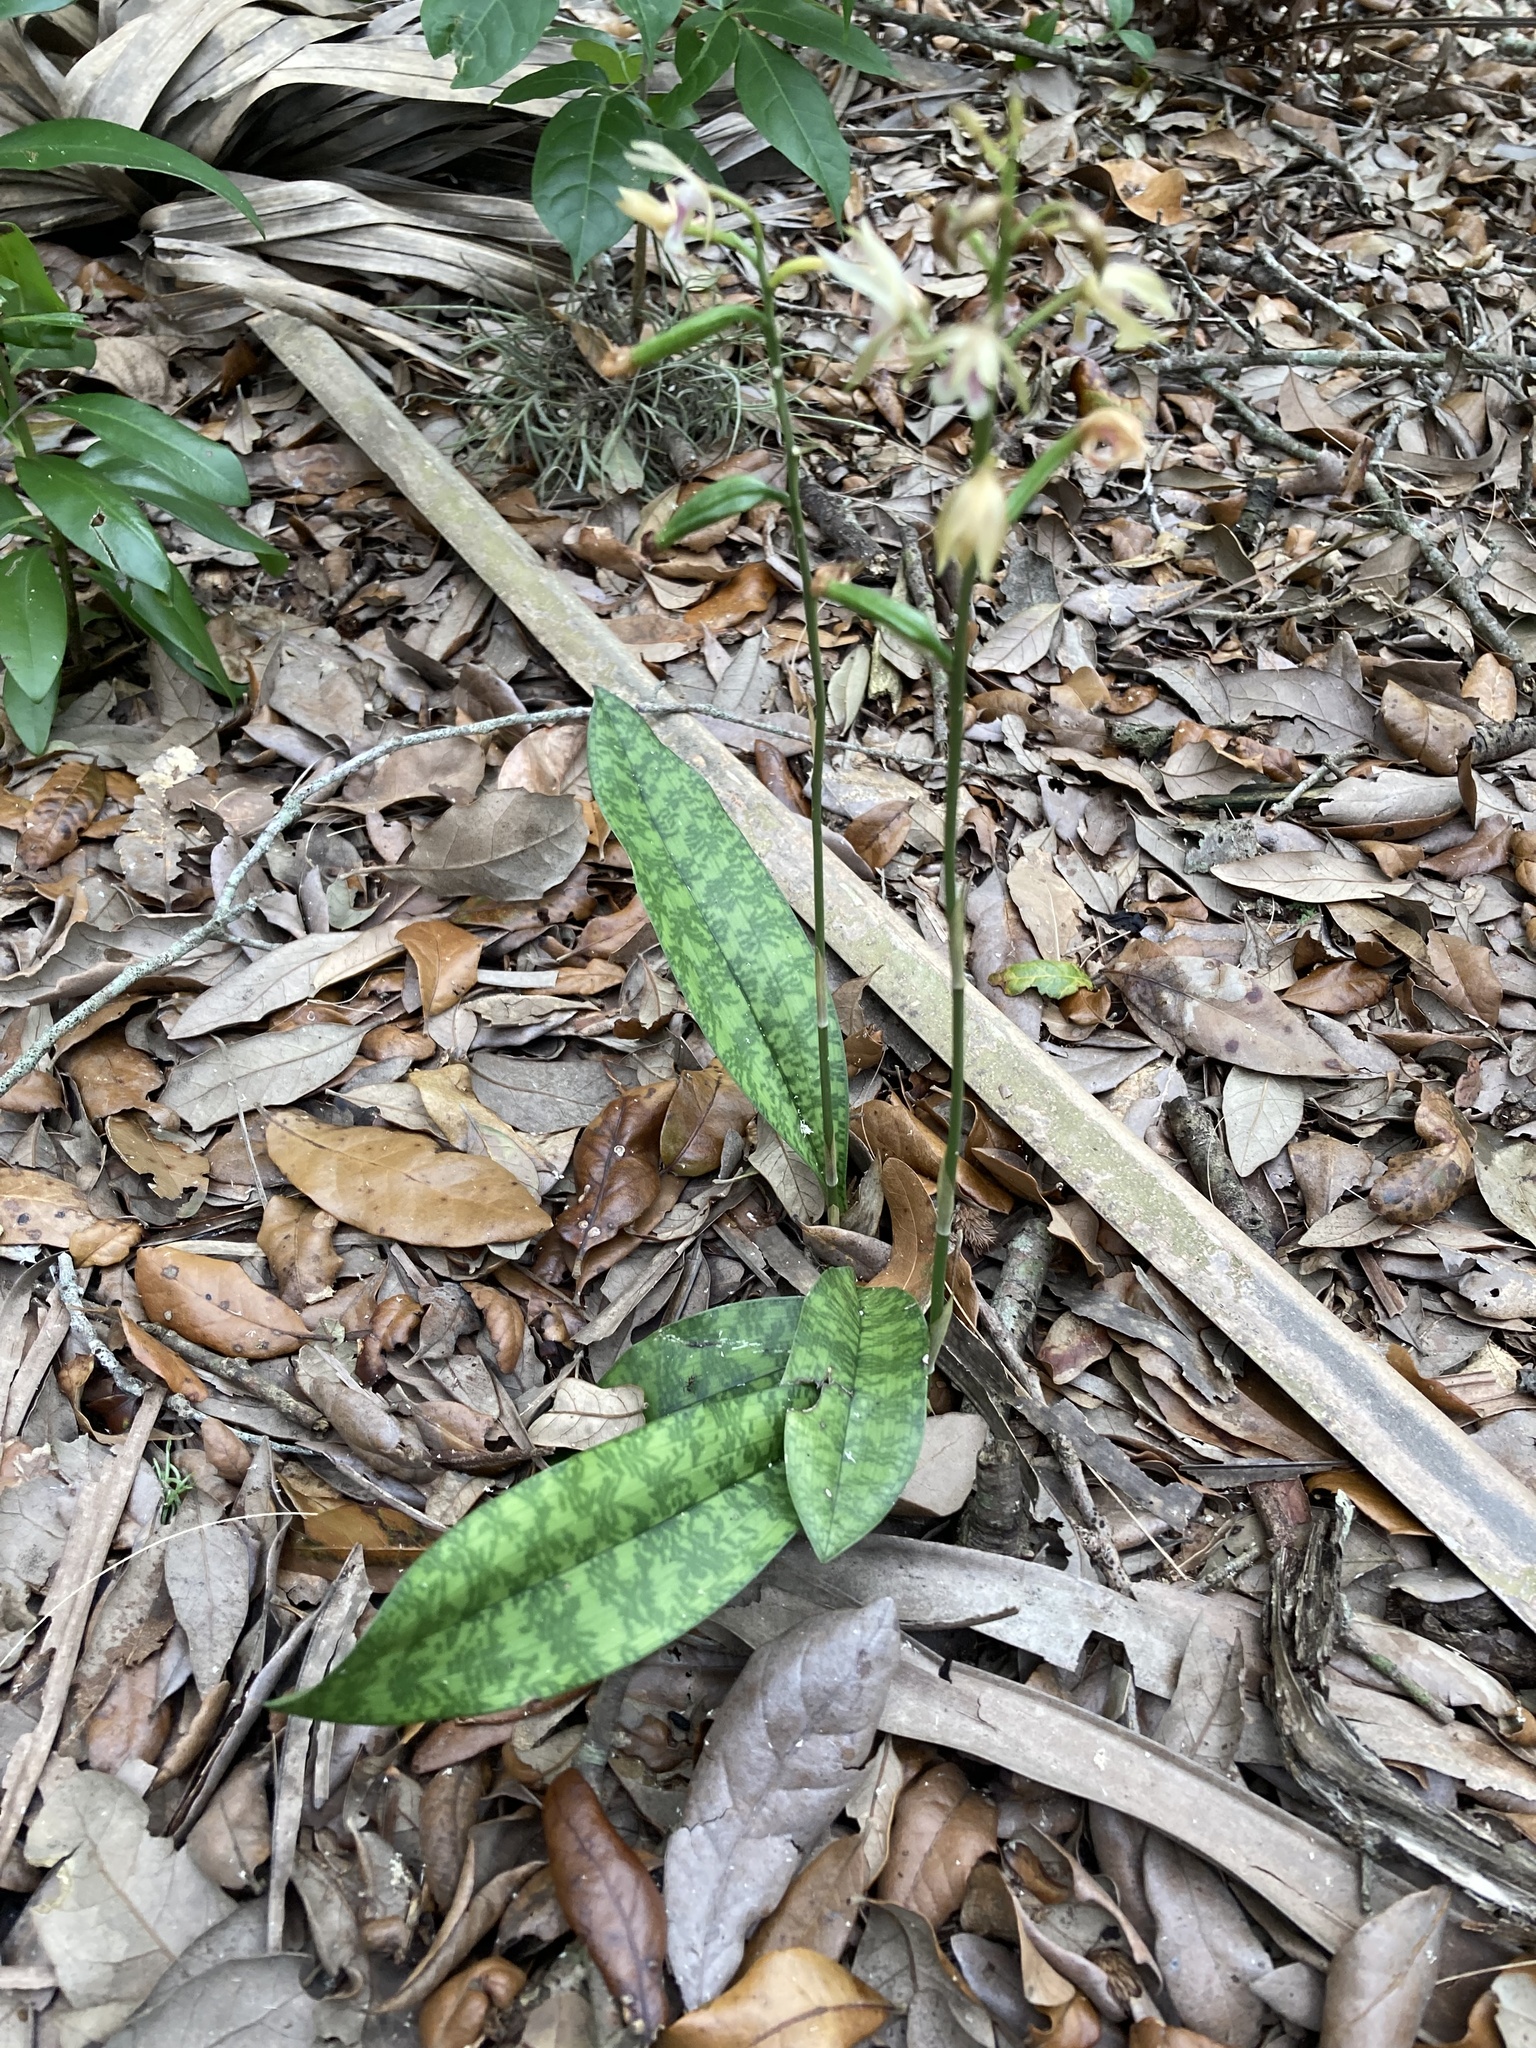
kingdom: Plantae
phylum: Tracheophyta
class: Liliopsida
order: Asparagales
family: Orchidaceae
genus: Eulophia
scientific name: Eulophia maculata
